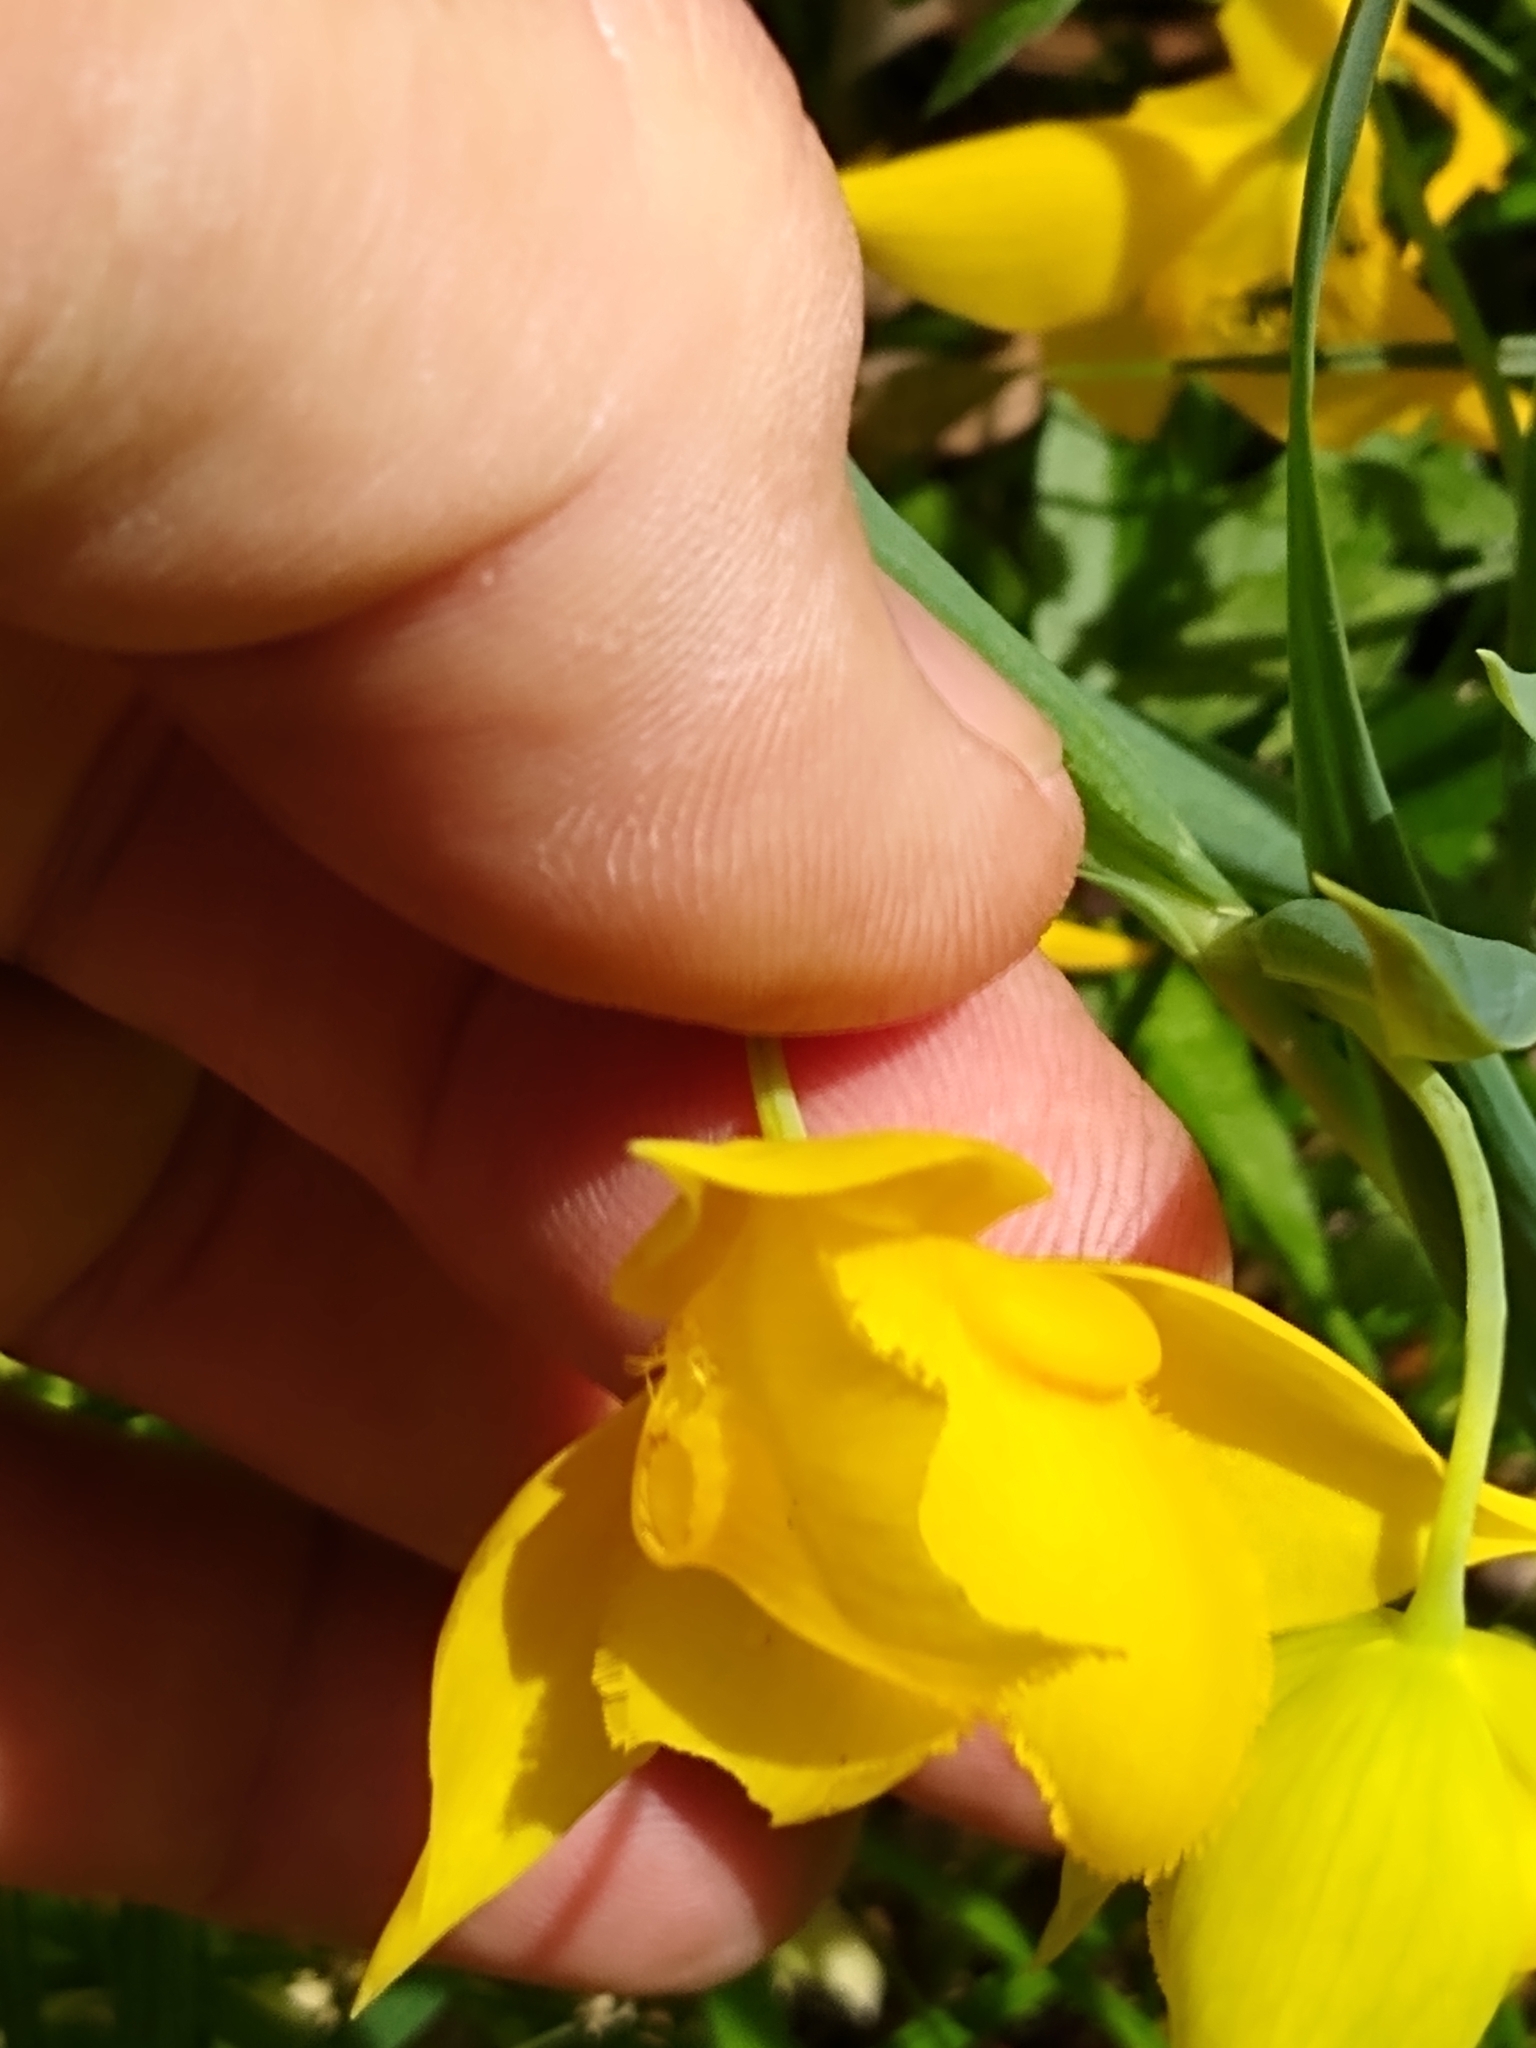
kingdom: Plantae
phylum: Tracheophyta
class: Liliopsida
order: Liliales
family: Liliaceae
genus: Calochortus
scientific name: Calochortus amabilis
